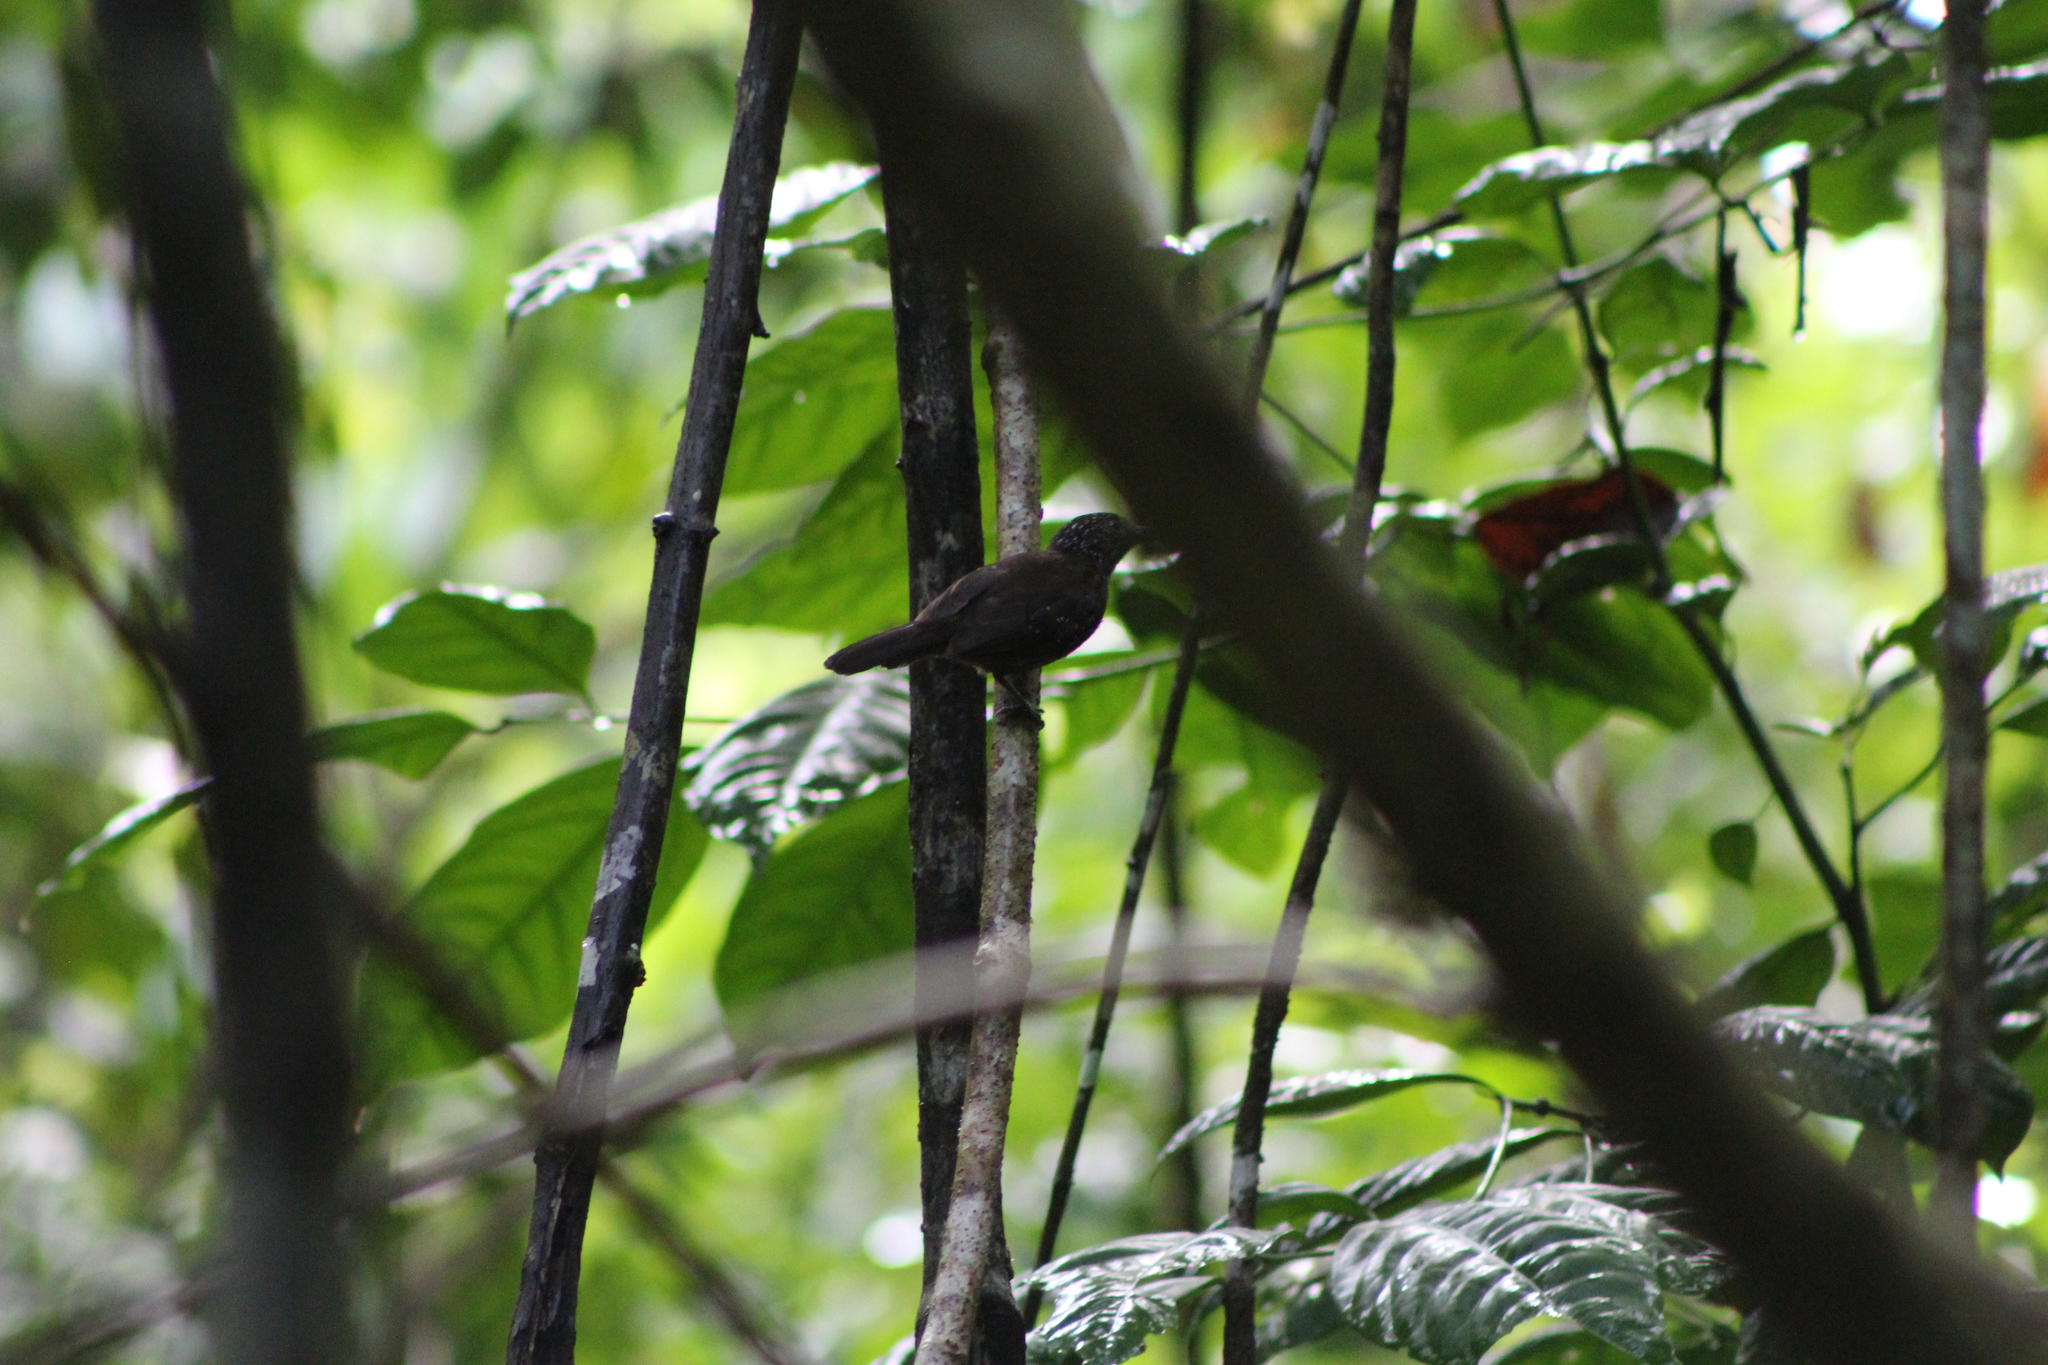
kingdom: Animalia
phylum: Chordata
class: Aves
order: Passeriformes
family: Thamnophilidae
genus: Thamnophilus
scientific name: Thamnophilus bridgesi
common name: Black-hooded antshrike
